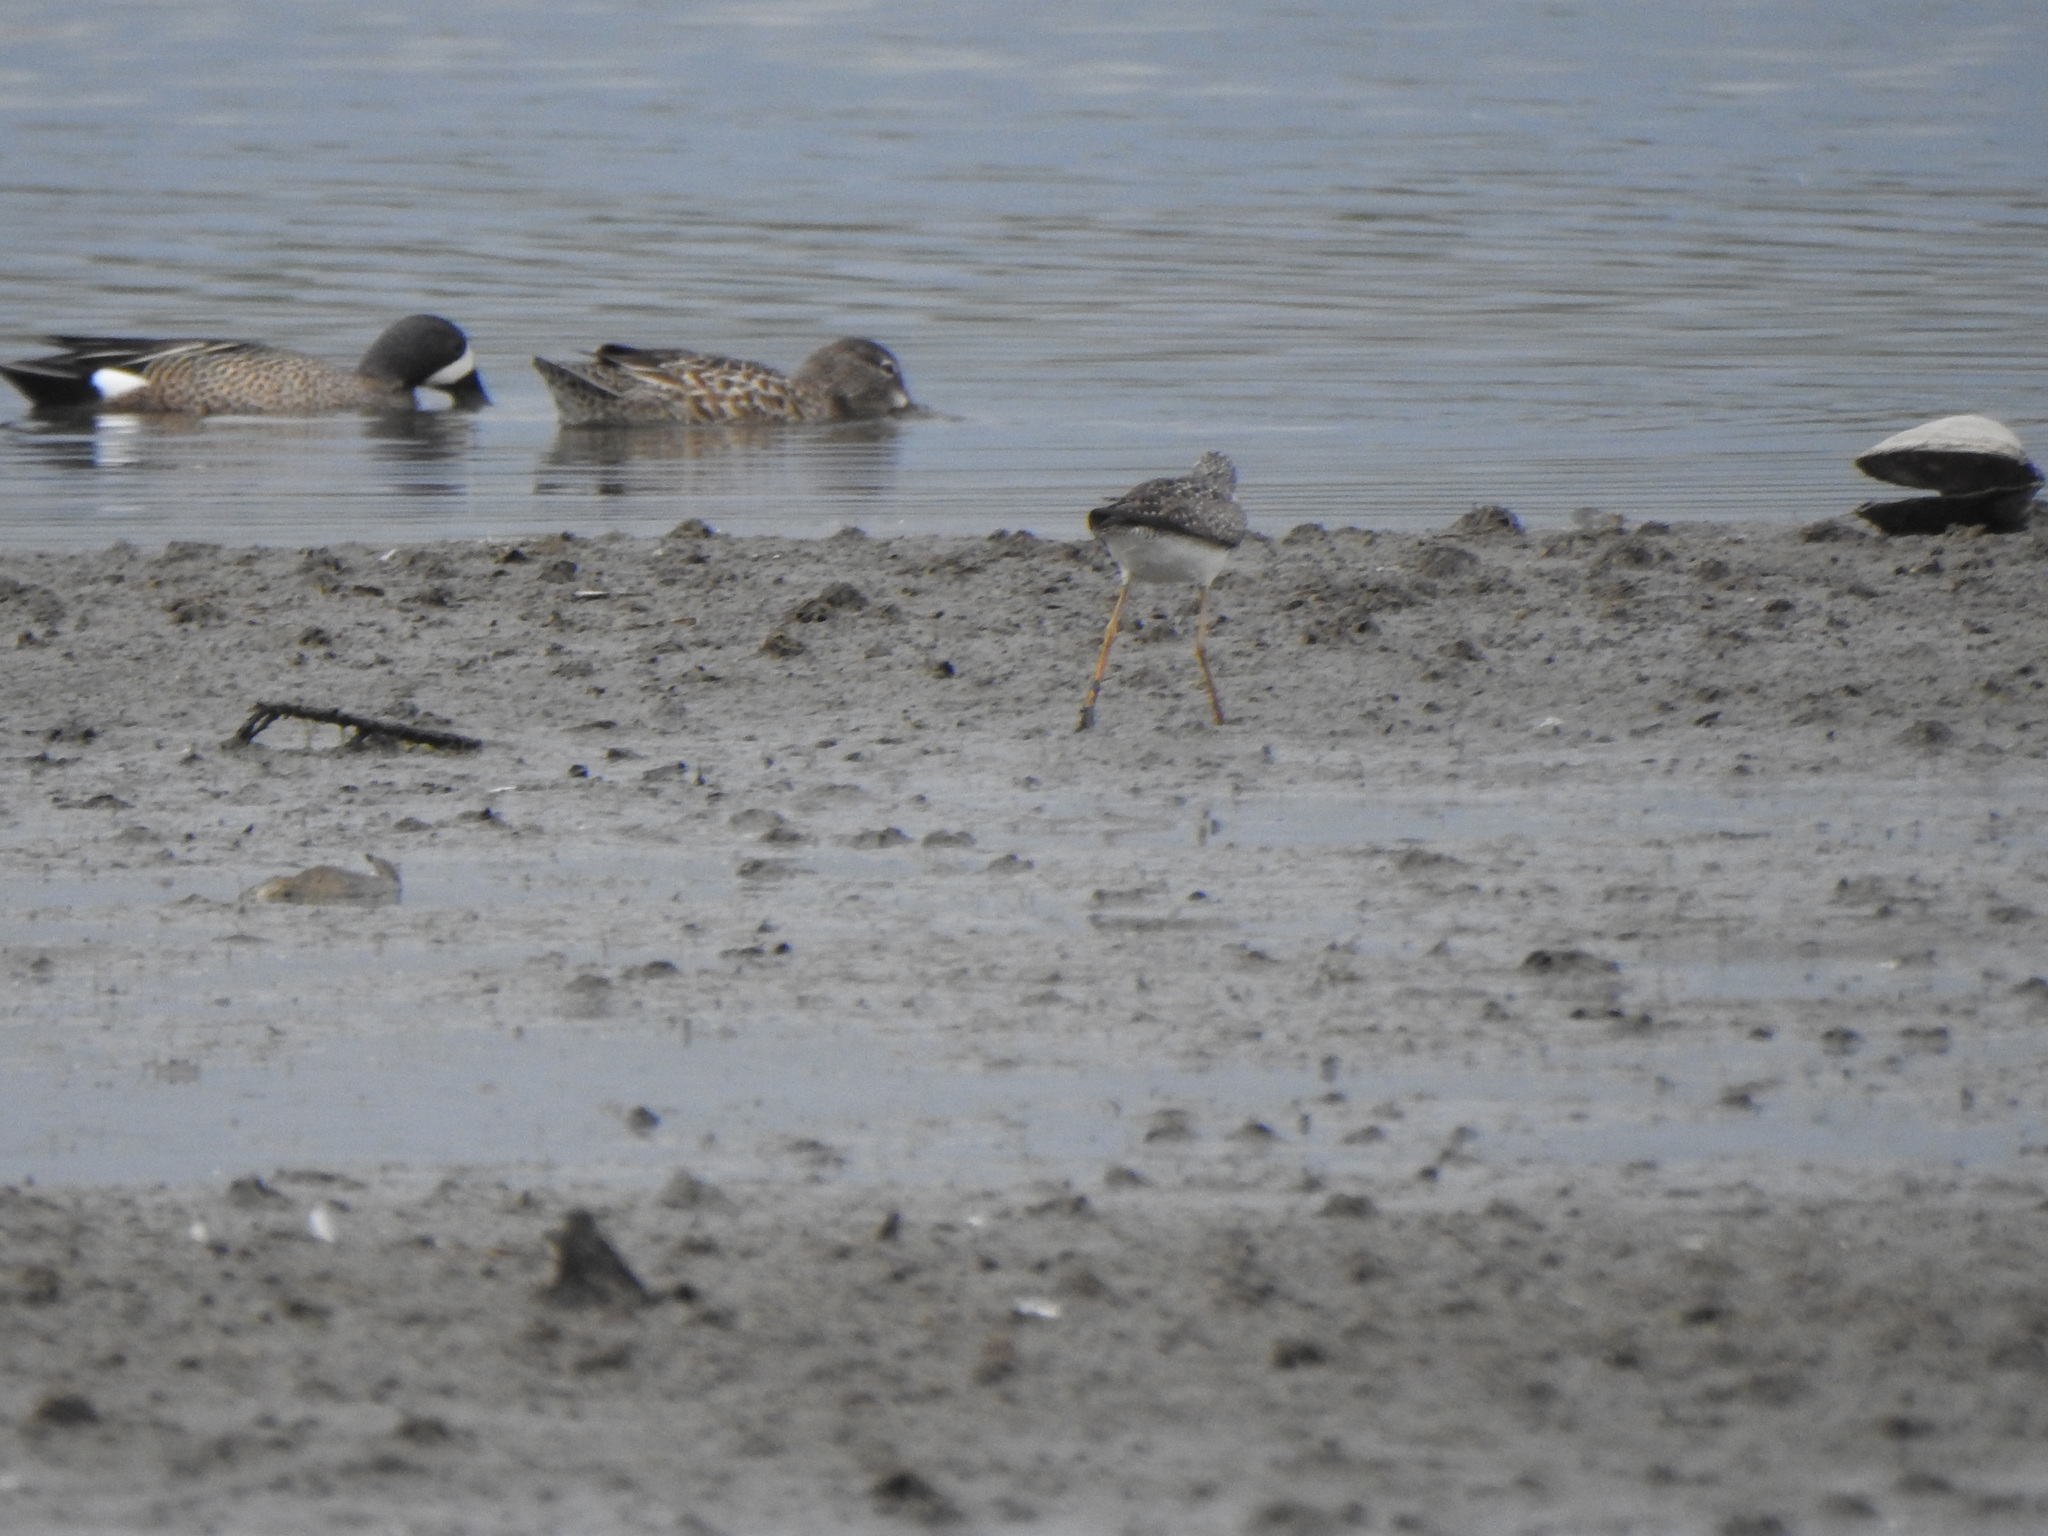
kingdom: Animalia
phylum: Chordata
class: Aves
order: Anseriformes
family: Anatidae
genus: Spatula
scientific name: Spatula discors
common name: Blue-winged teal
